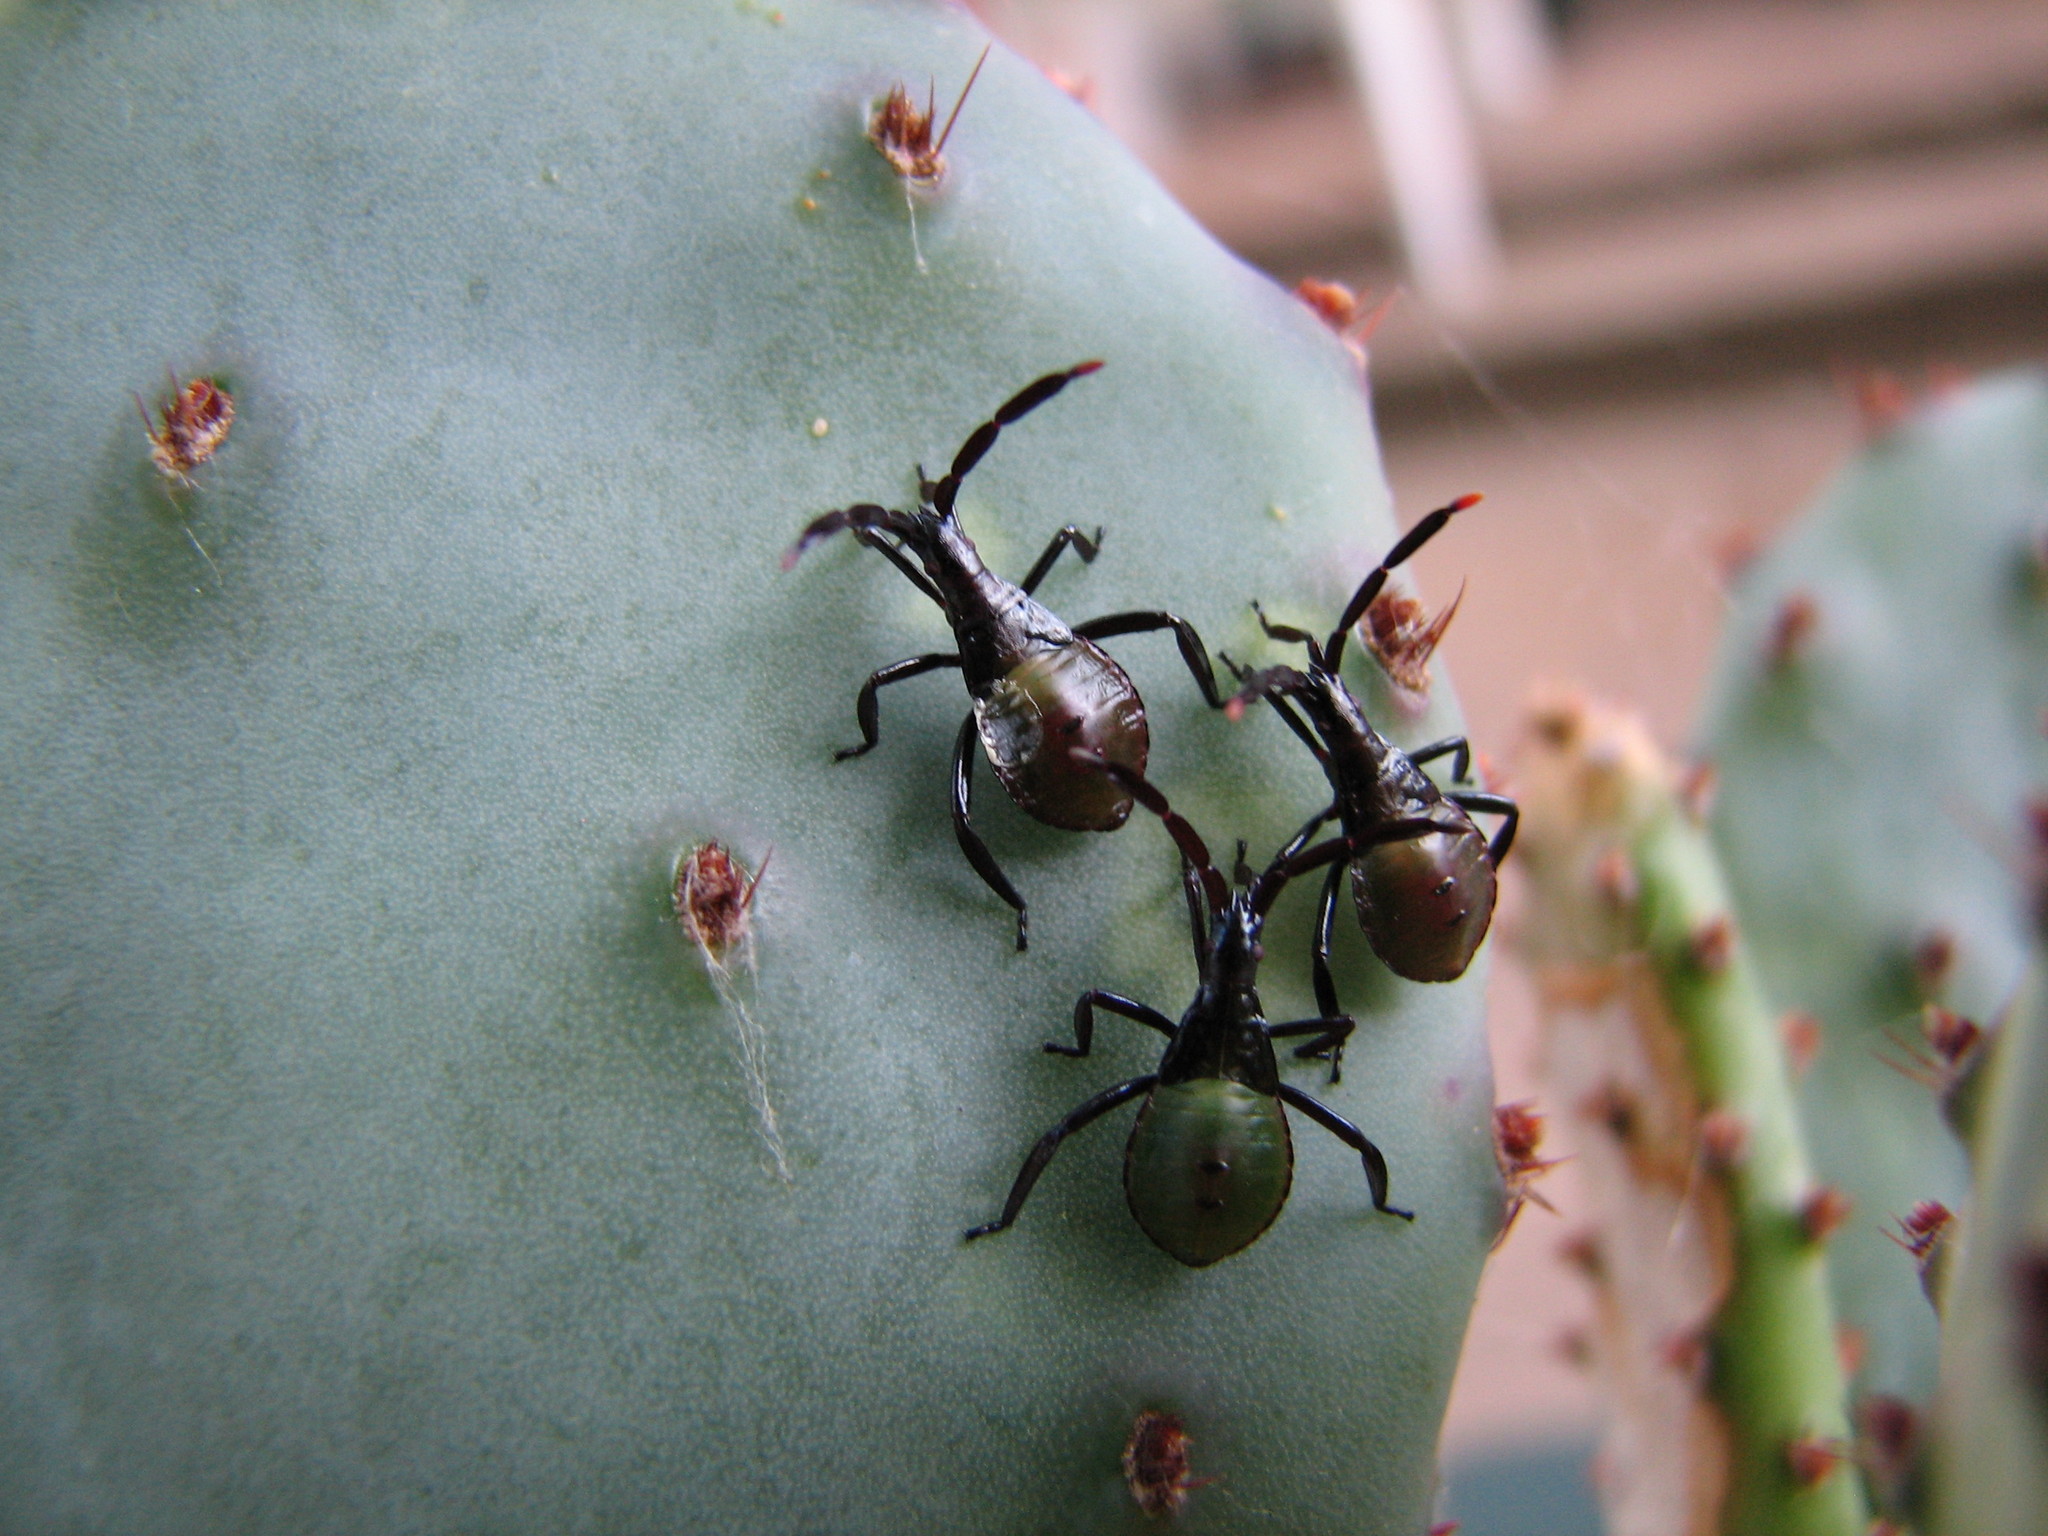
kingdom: Animalia
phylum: Arthropoda
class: Insecta
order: Hemiptera
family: Coreidae
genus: Chelinidea
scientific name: Chelinidea vittiger
